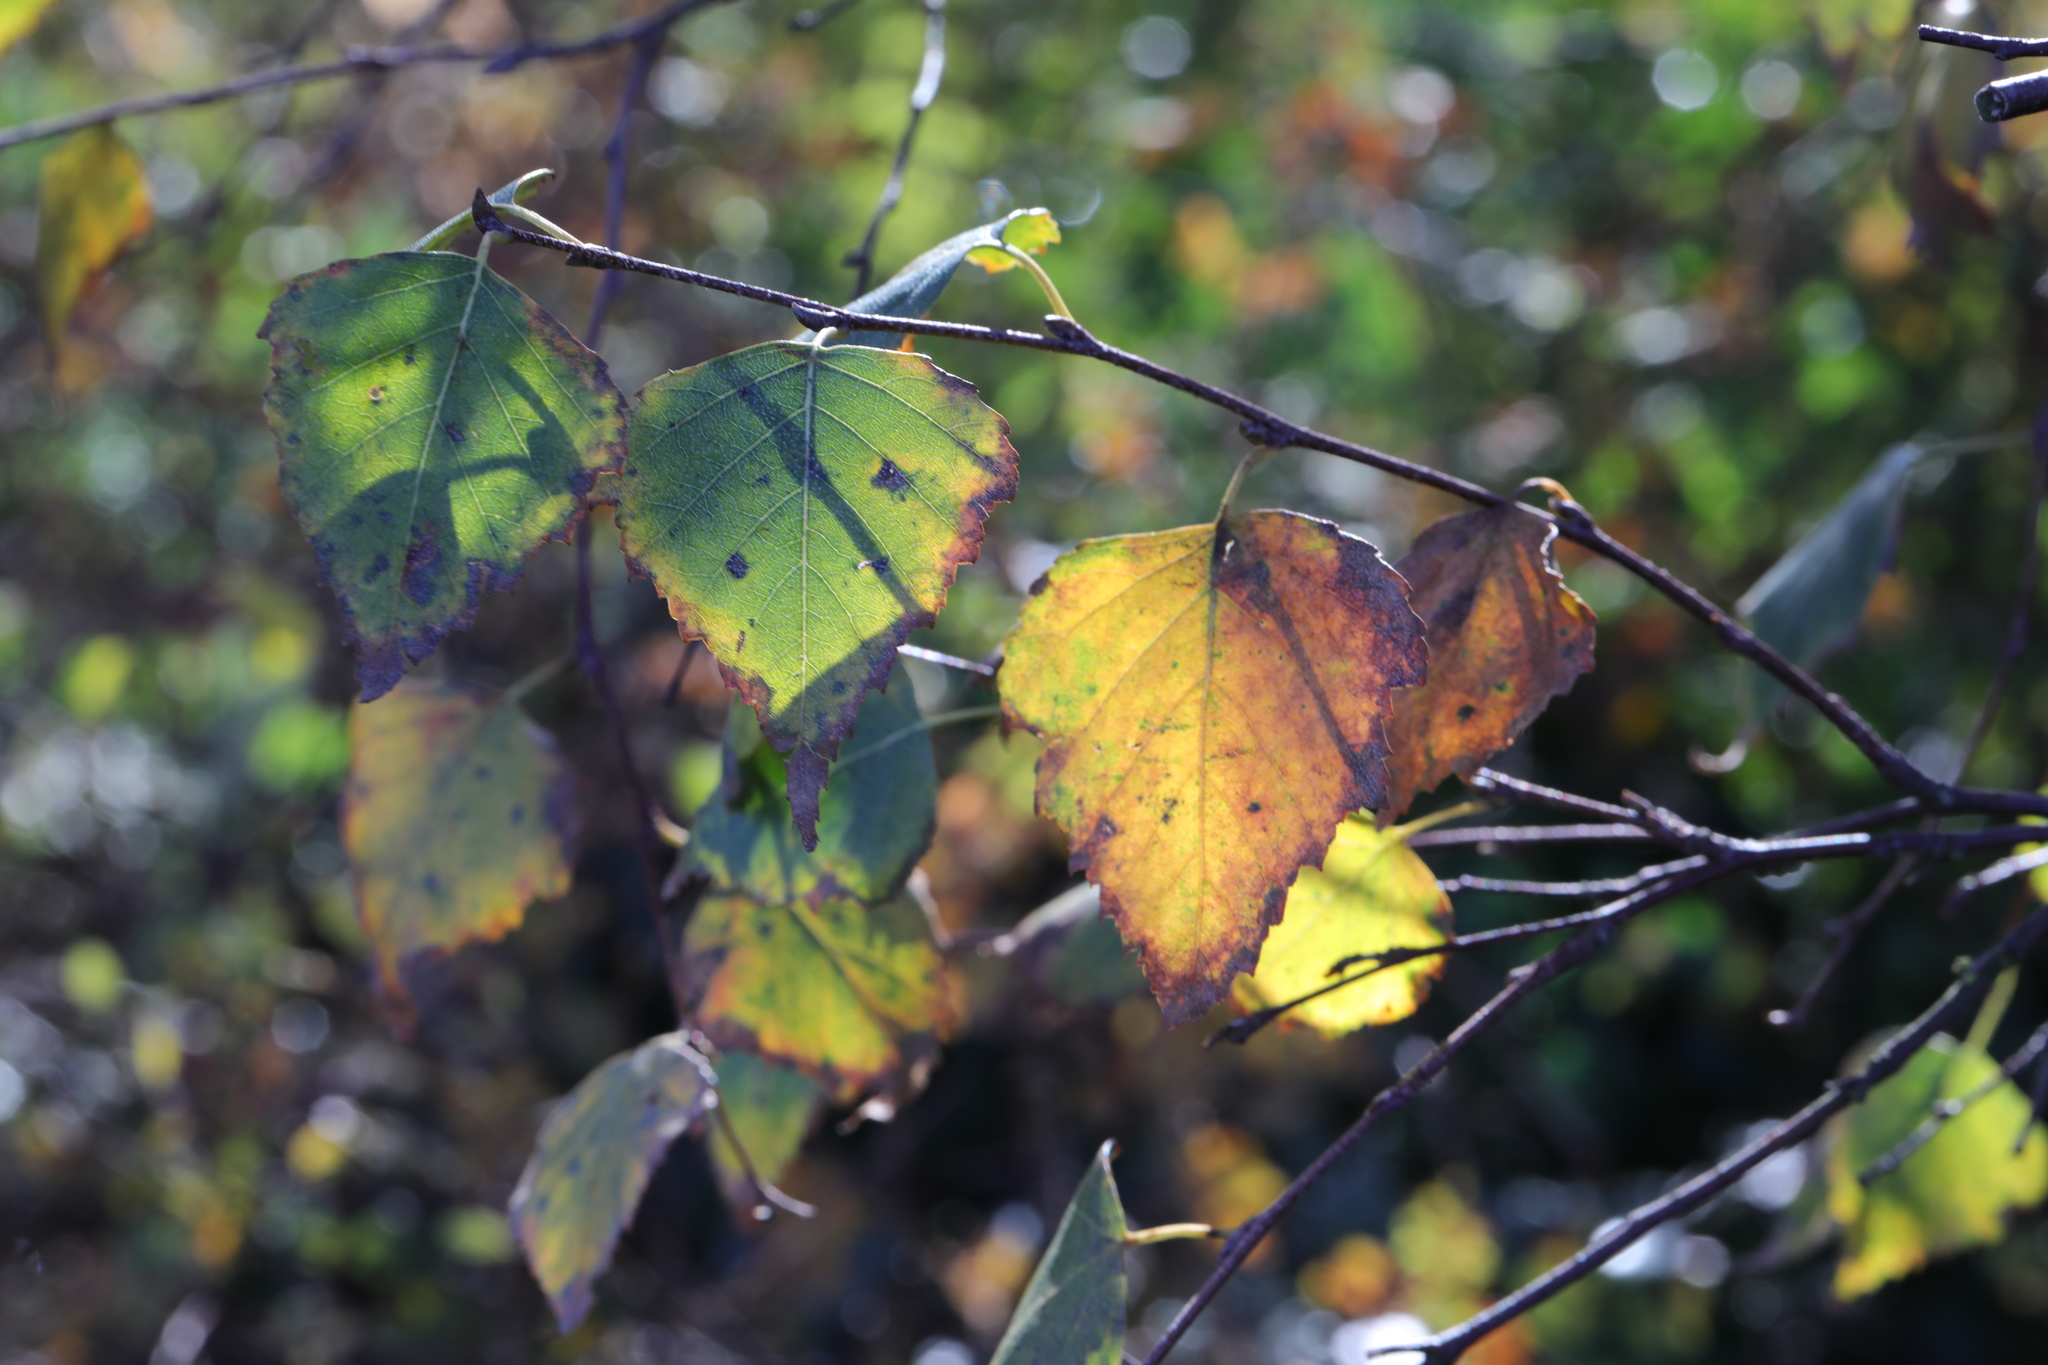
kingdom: Plantae
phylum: Tracheophyta
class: Magnoliopsida
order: Fagales
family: Betulaceae
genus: Betula
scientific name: Betula pendula
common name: Silver birch
